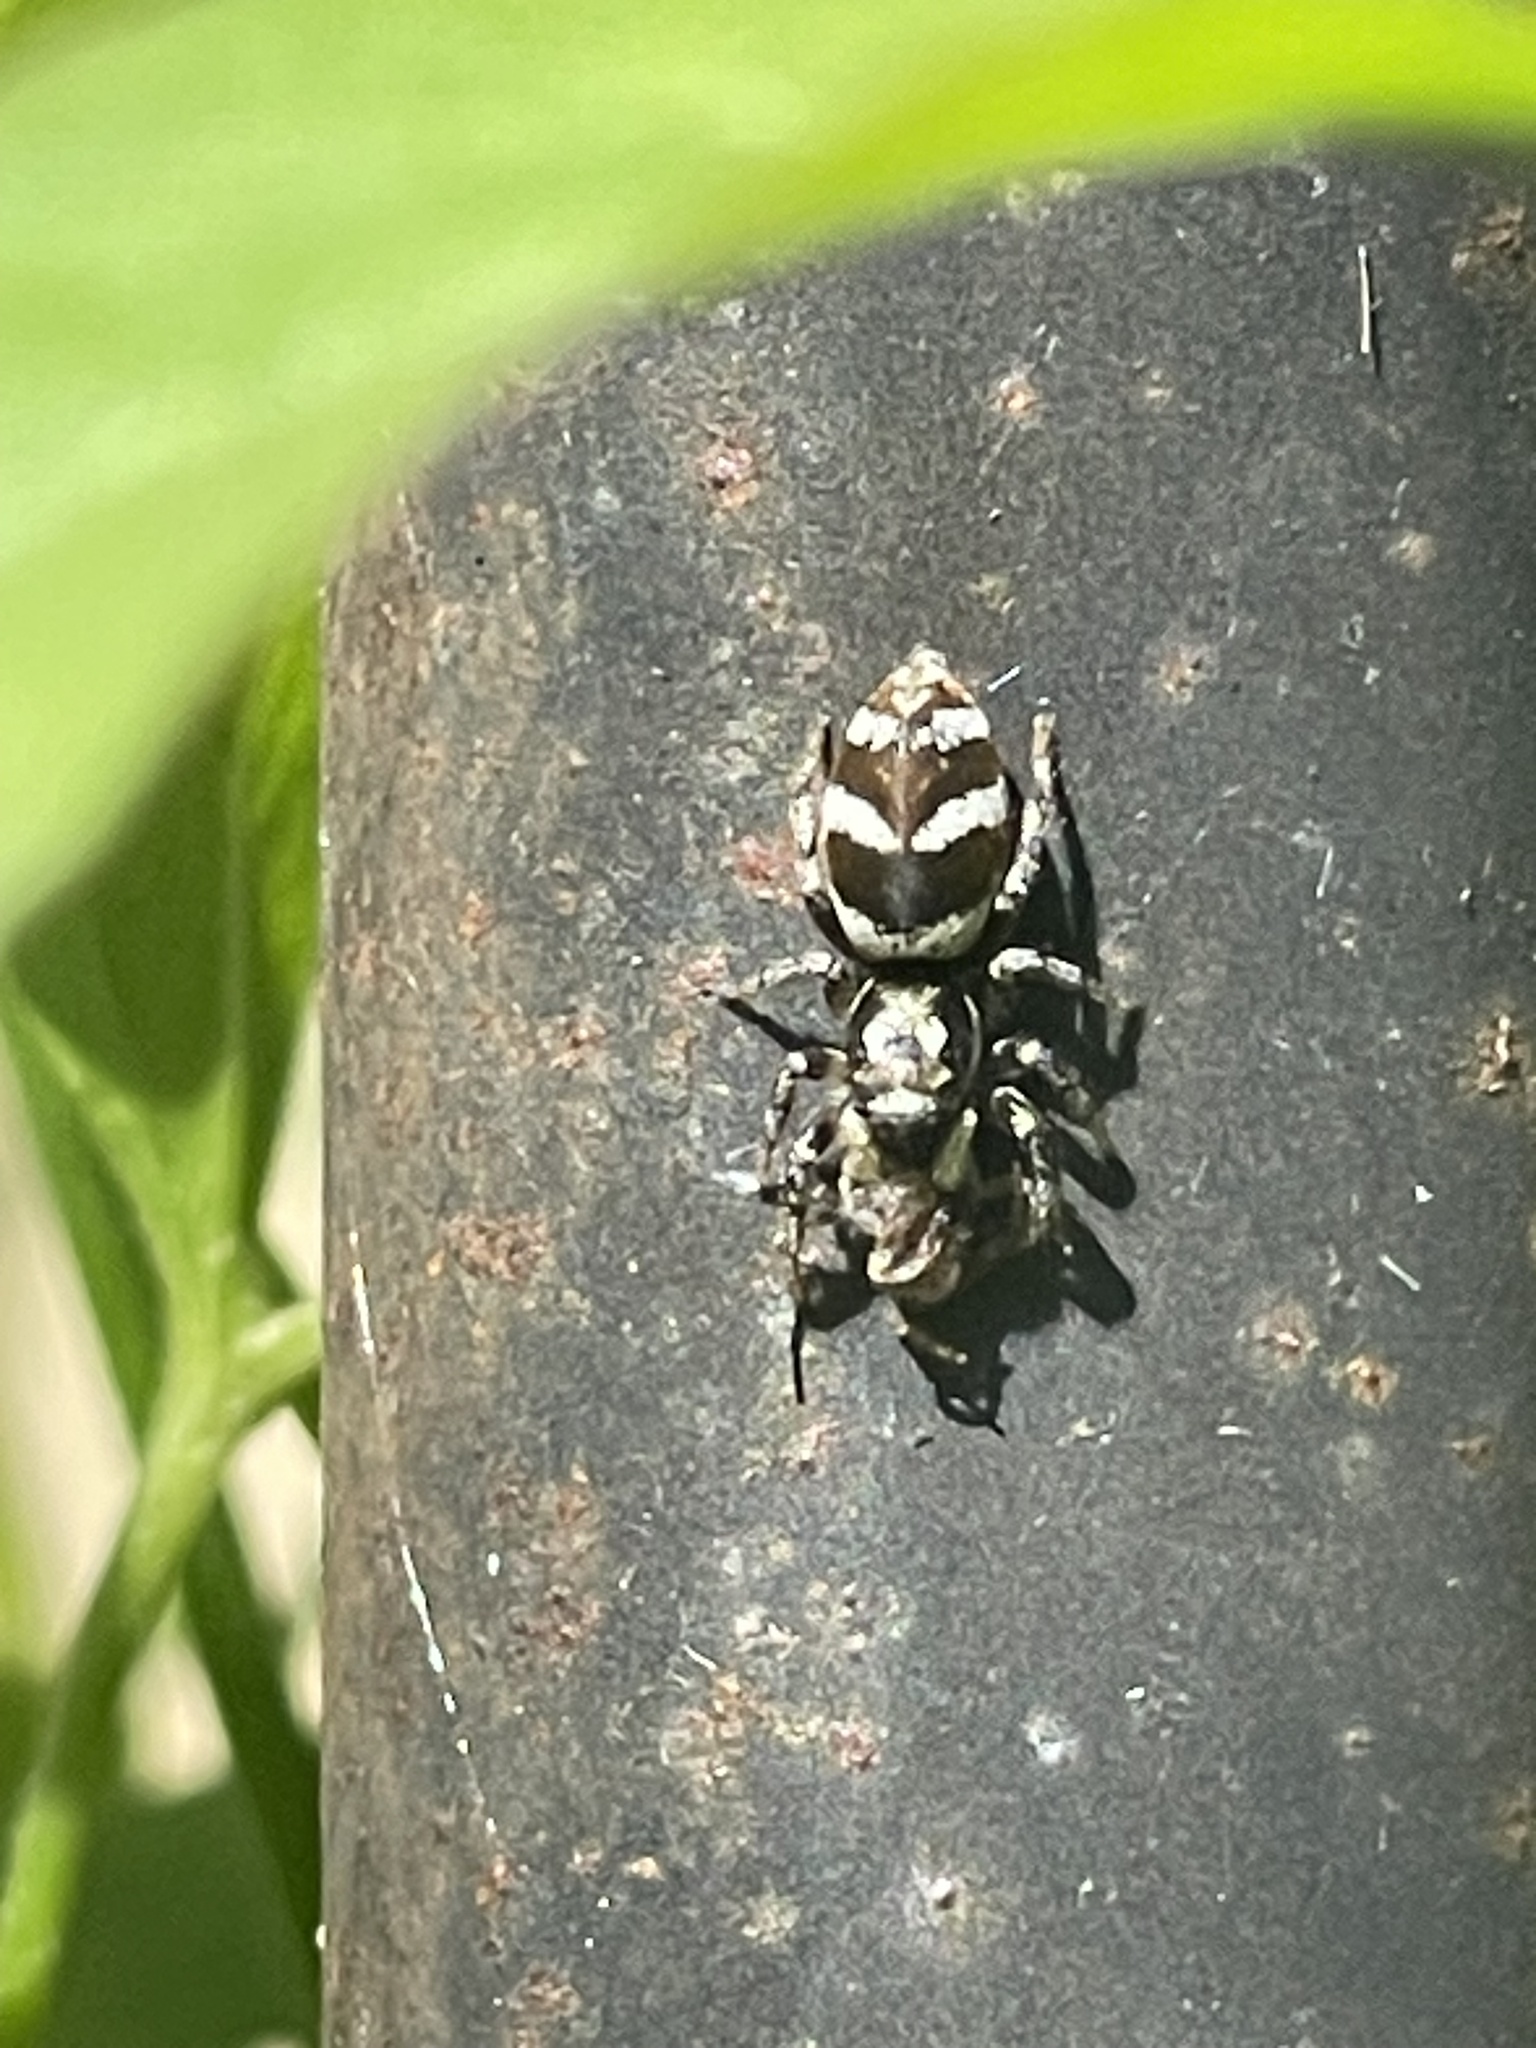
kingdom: Animalia
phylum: Arthropoda
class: Arachnida
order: Araneae
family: Salticidae
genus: Salticus
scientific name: Salticus scenicus
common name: Zebra jumper
